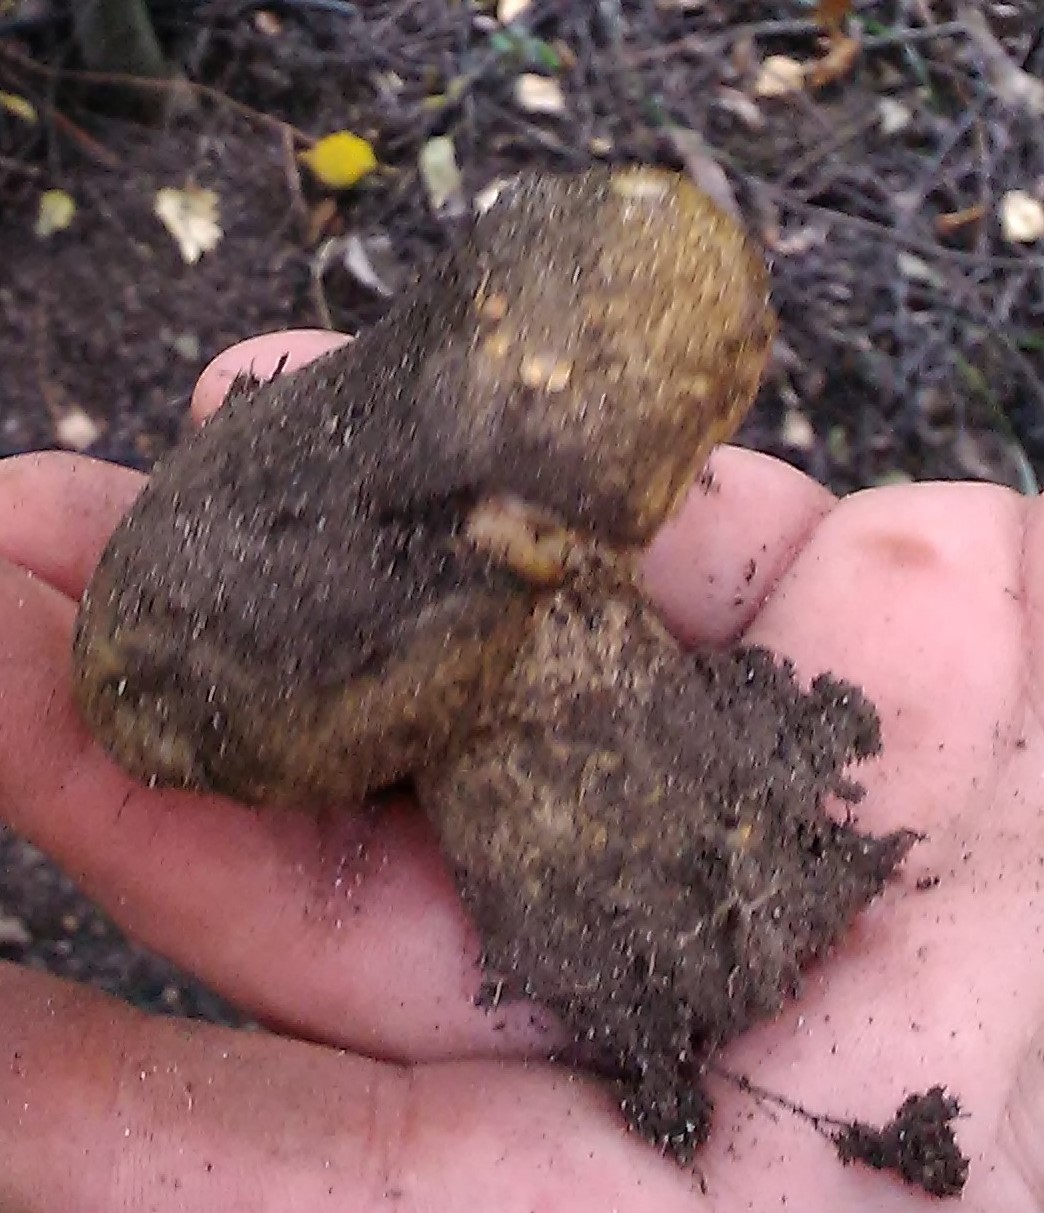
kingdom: Fungi
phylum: Basidiomycota
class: Agaricomycetes
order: Russulales
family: Russulaceae
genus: Lactarius
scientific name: Lactarius turpis
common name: Ugly milk-cap
